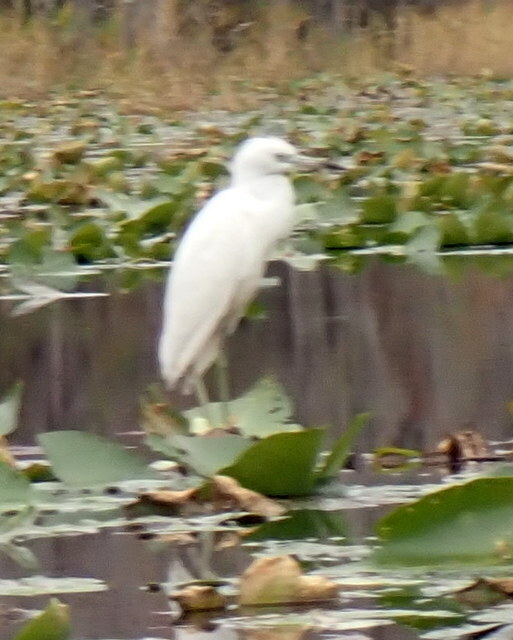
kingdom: Animalia
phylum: Chordata
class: Aves
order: Pelecaniformes
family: Ardeidae
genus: Egretta
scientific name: Egretta caerulea
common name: Little blue heron
